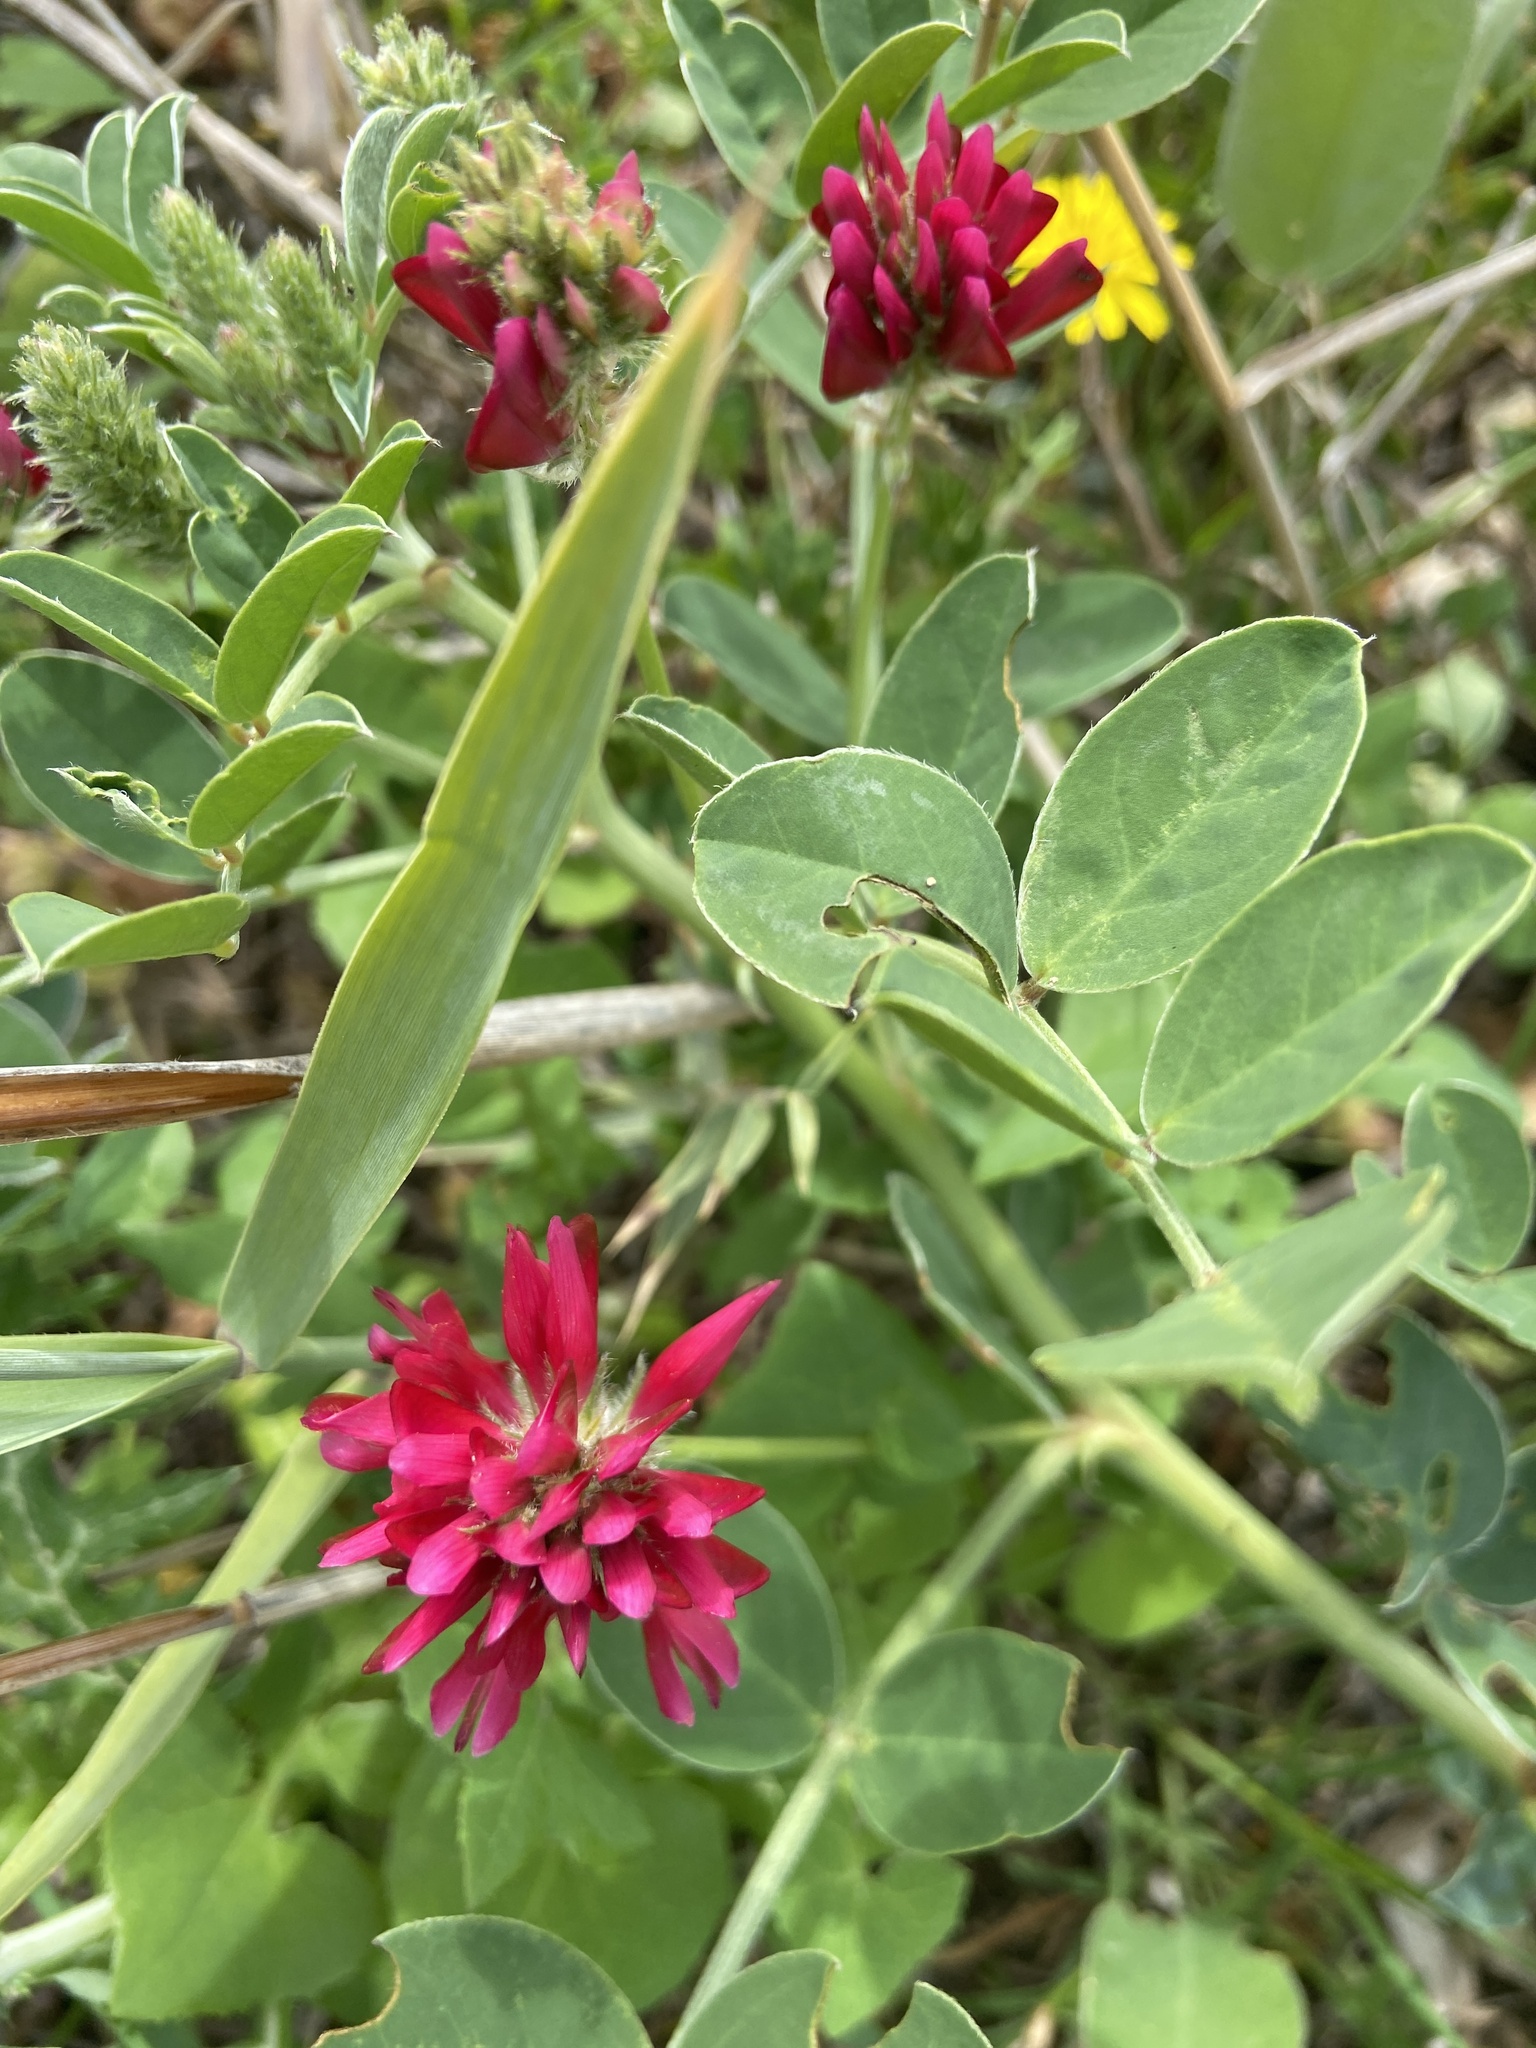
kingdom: Plantae
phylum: Tracheophyta
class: Magnoliopsida
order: Fabales
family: Fabaceae
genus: Sulla
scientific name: Sulla coronaria
